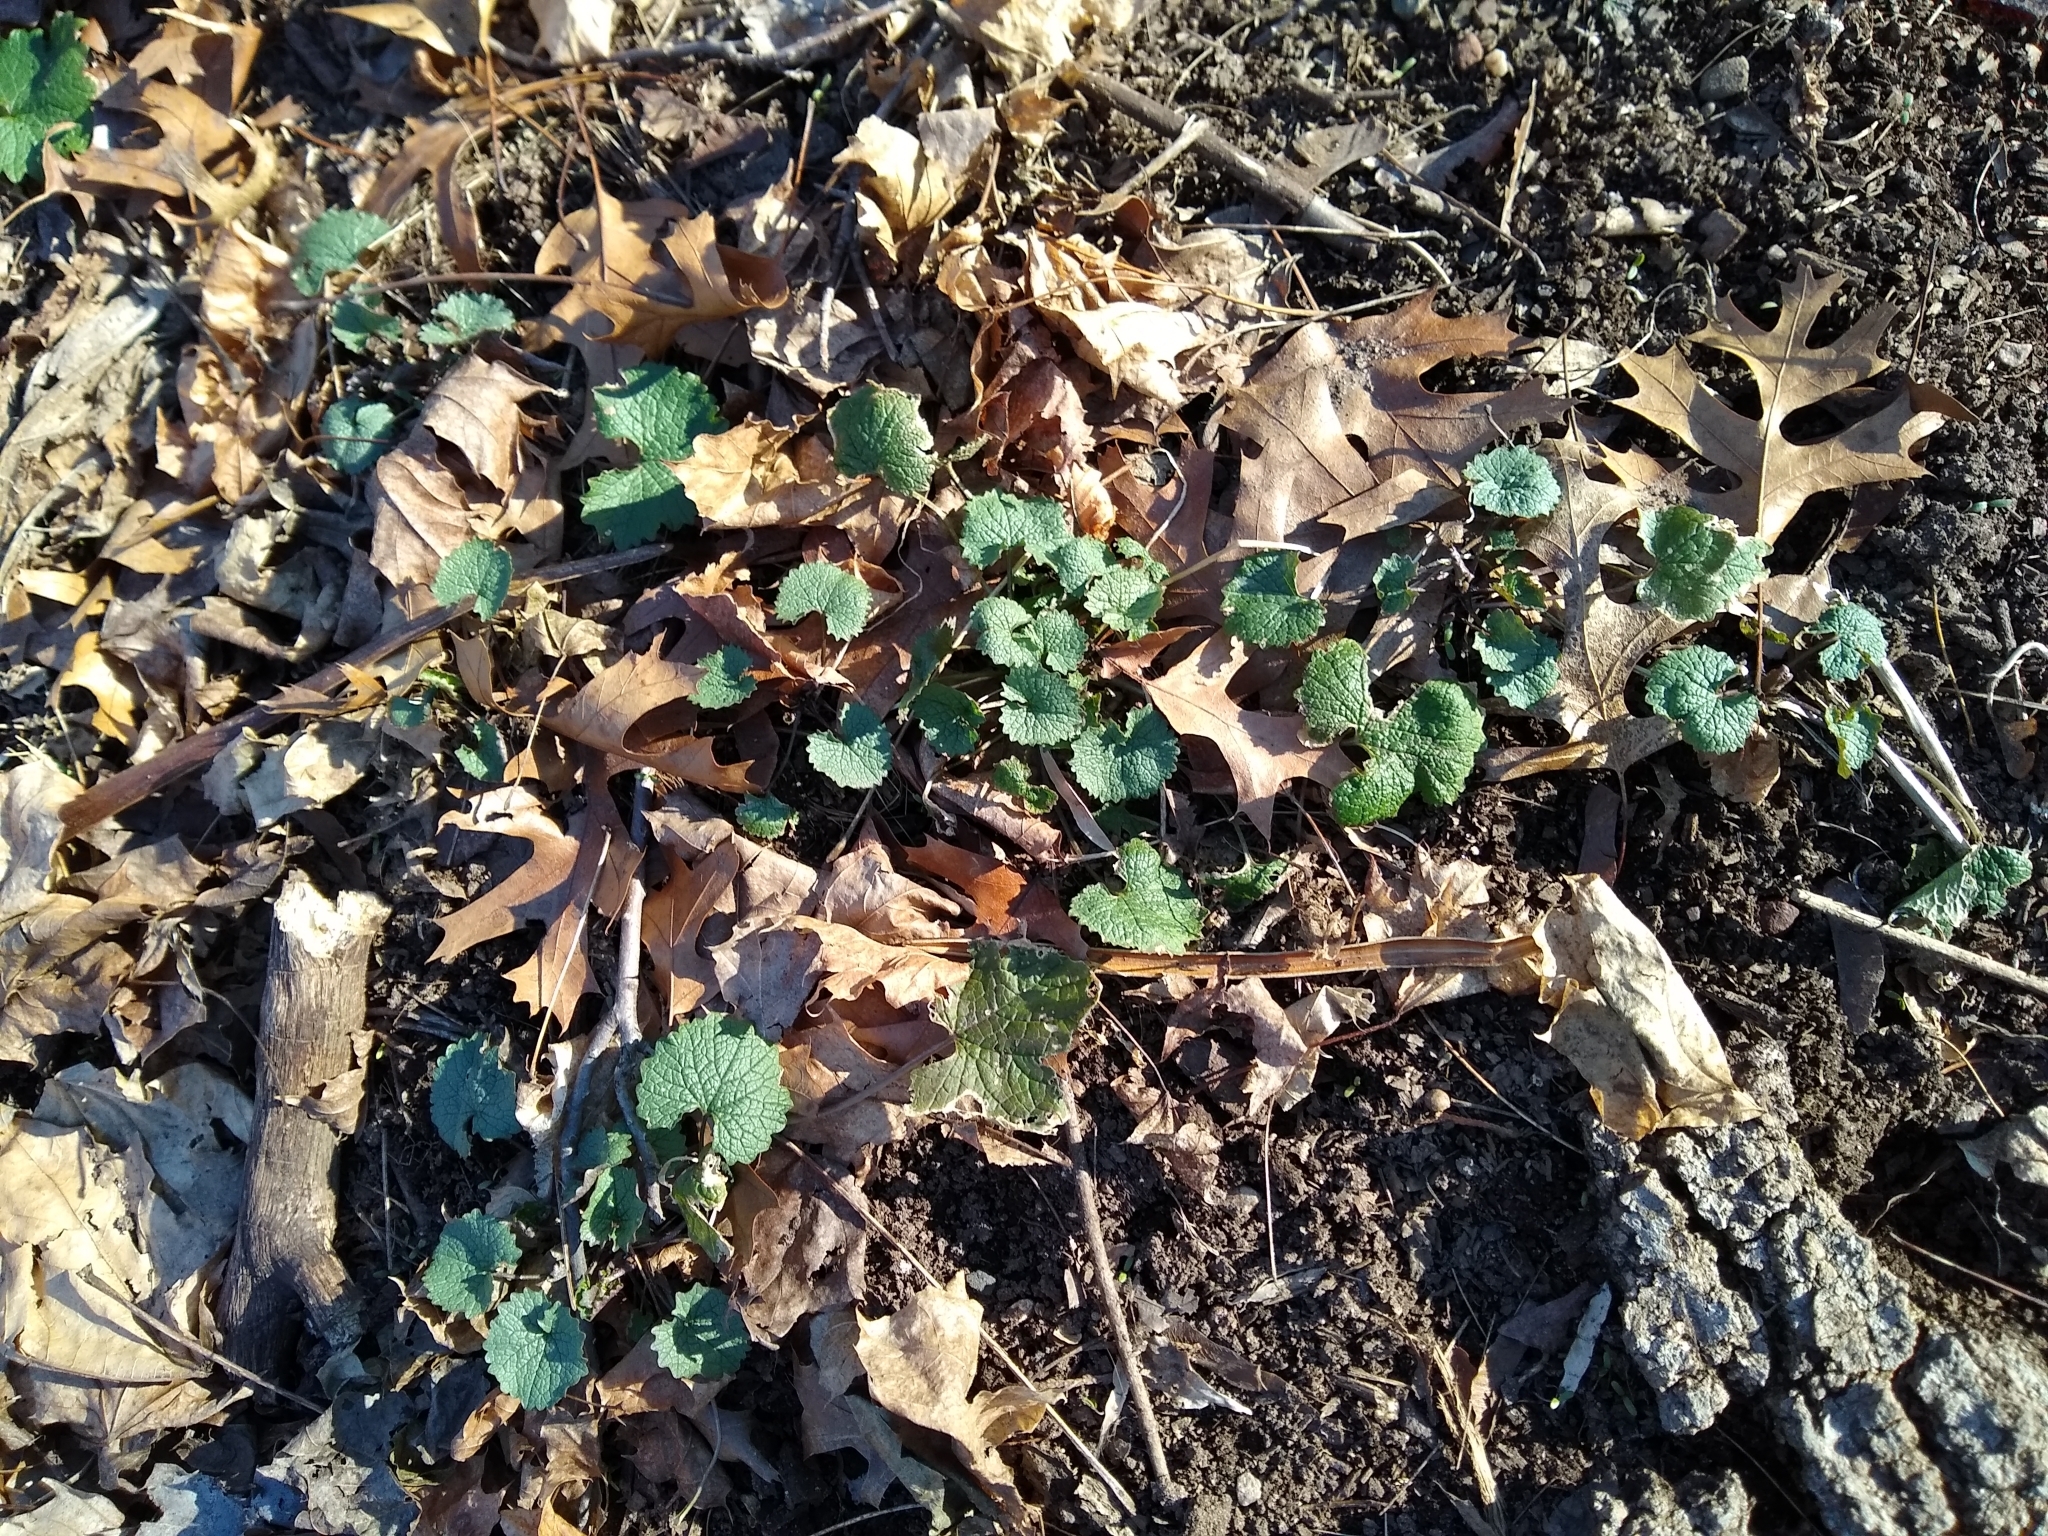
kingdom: Plantae
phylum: Tracheophyta
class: Magnoliopsida
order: Brassicales
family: Brassicaceae
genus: Alliaria
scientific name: Alliaria petiolata
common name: Garlic mustard
